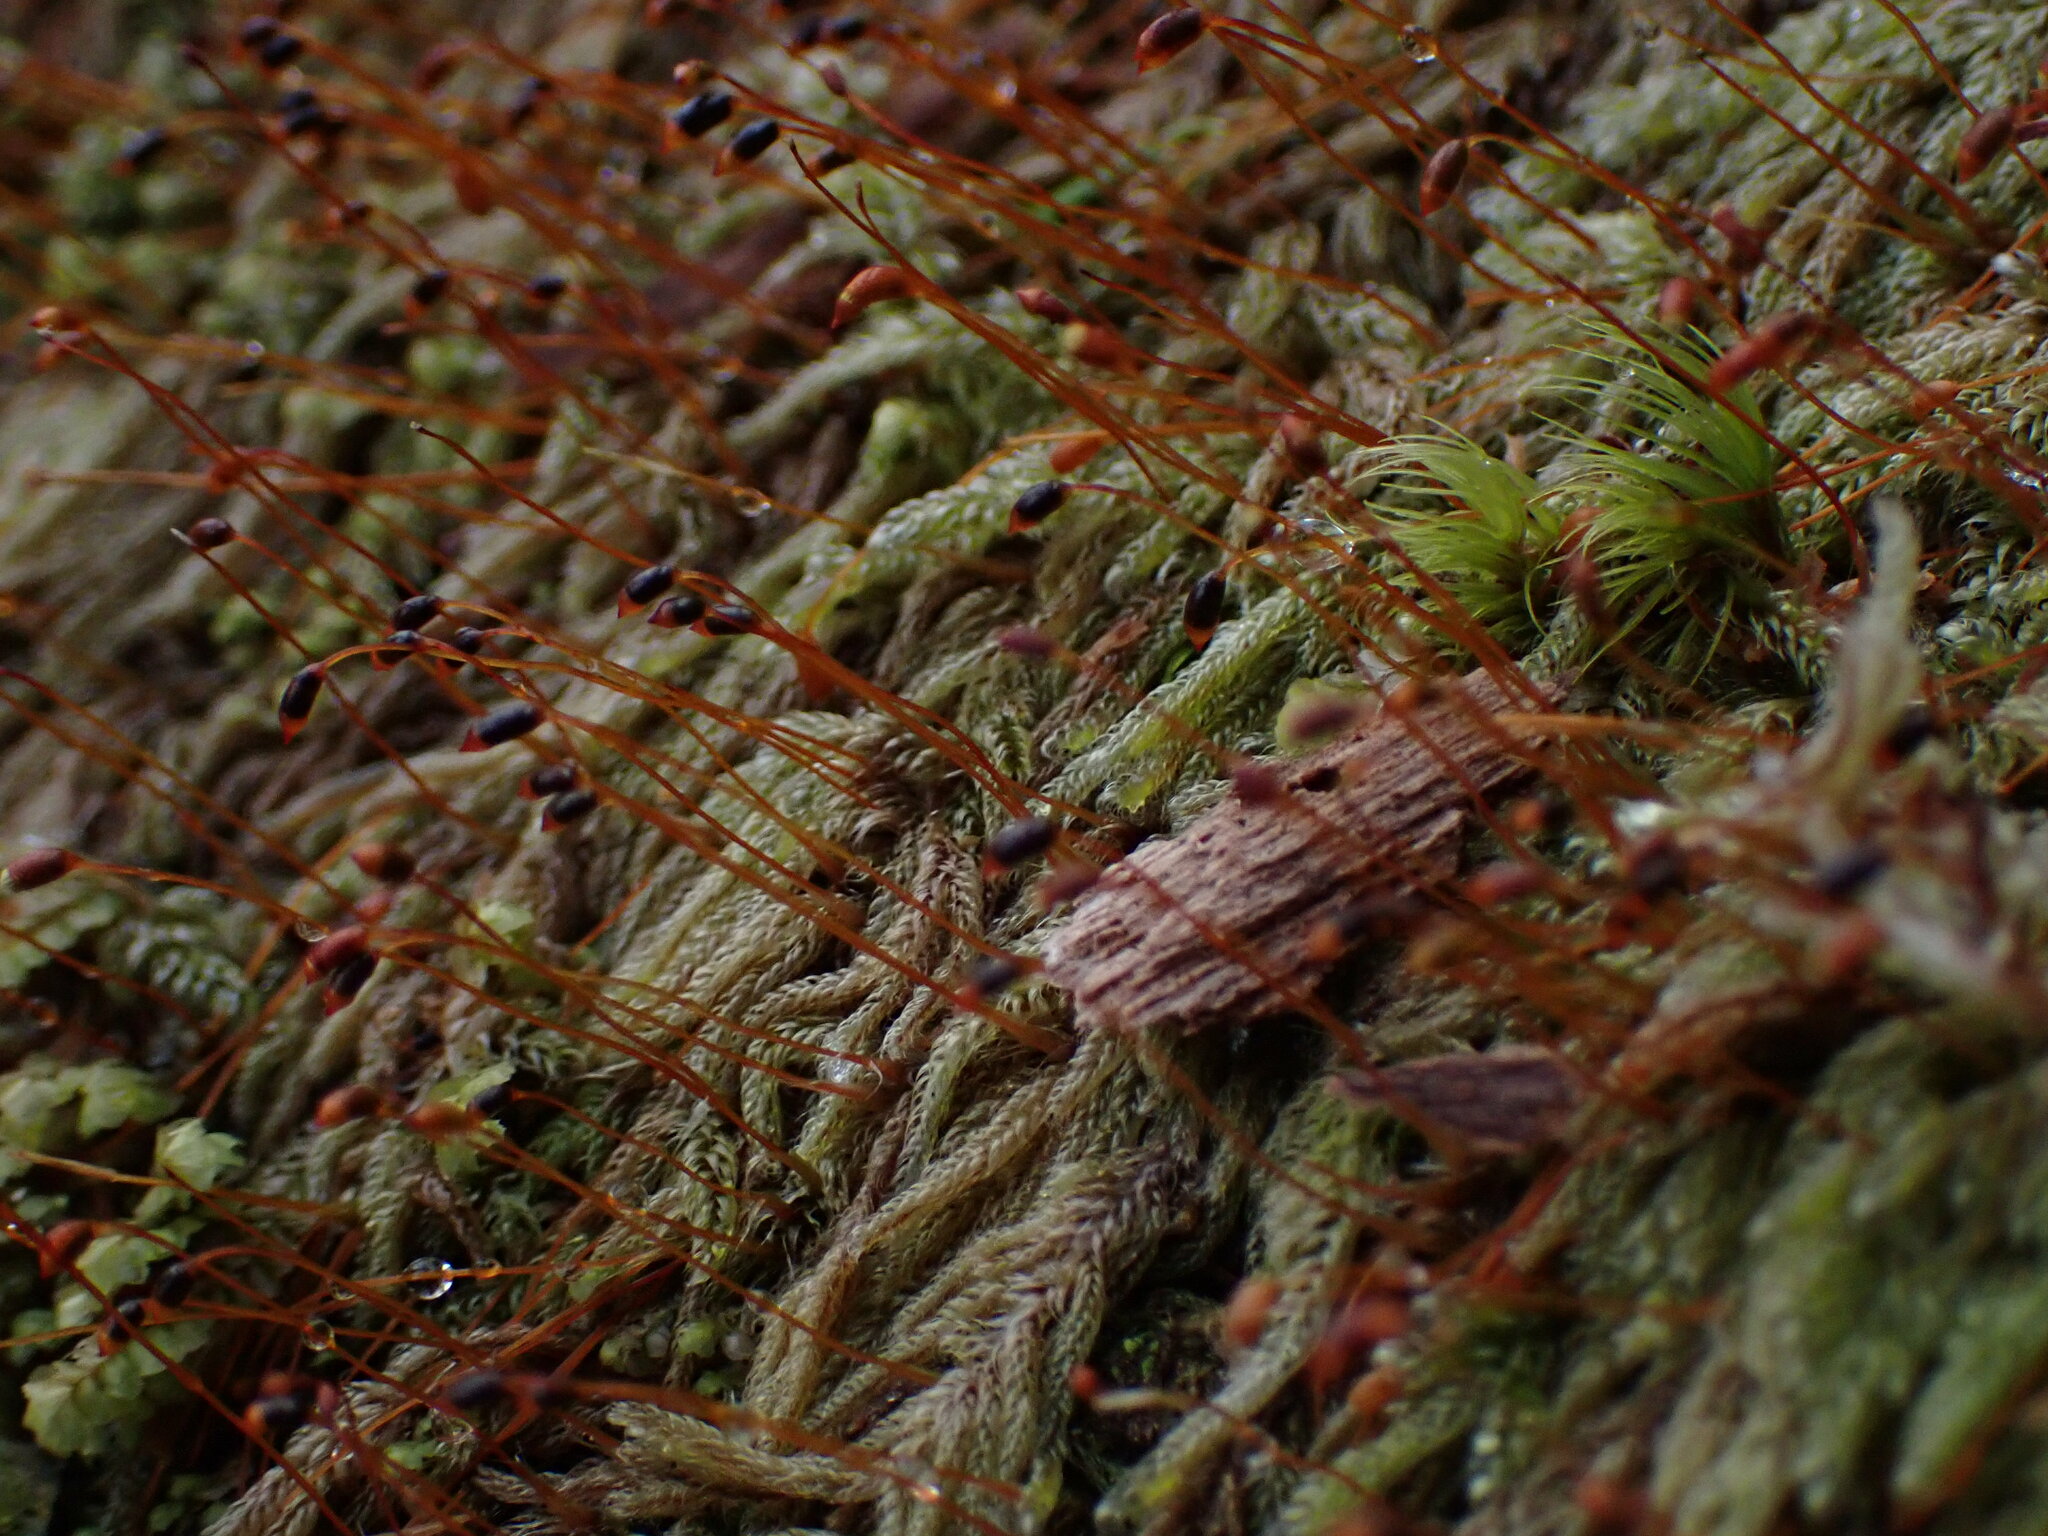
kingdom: Plantae
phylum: Bryophyta
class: Bryopsida
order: Hypnales
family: Pylaisiadelphaceae
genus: Trochophyllohypnum
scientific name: Trochophyllohypnum circinale
